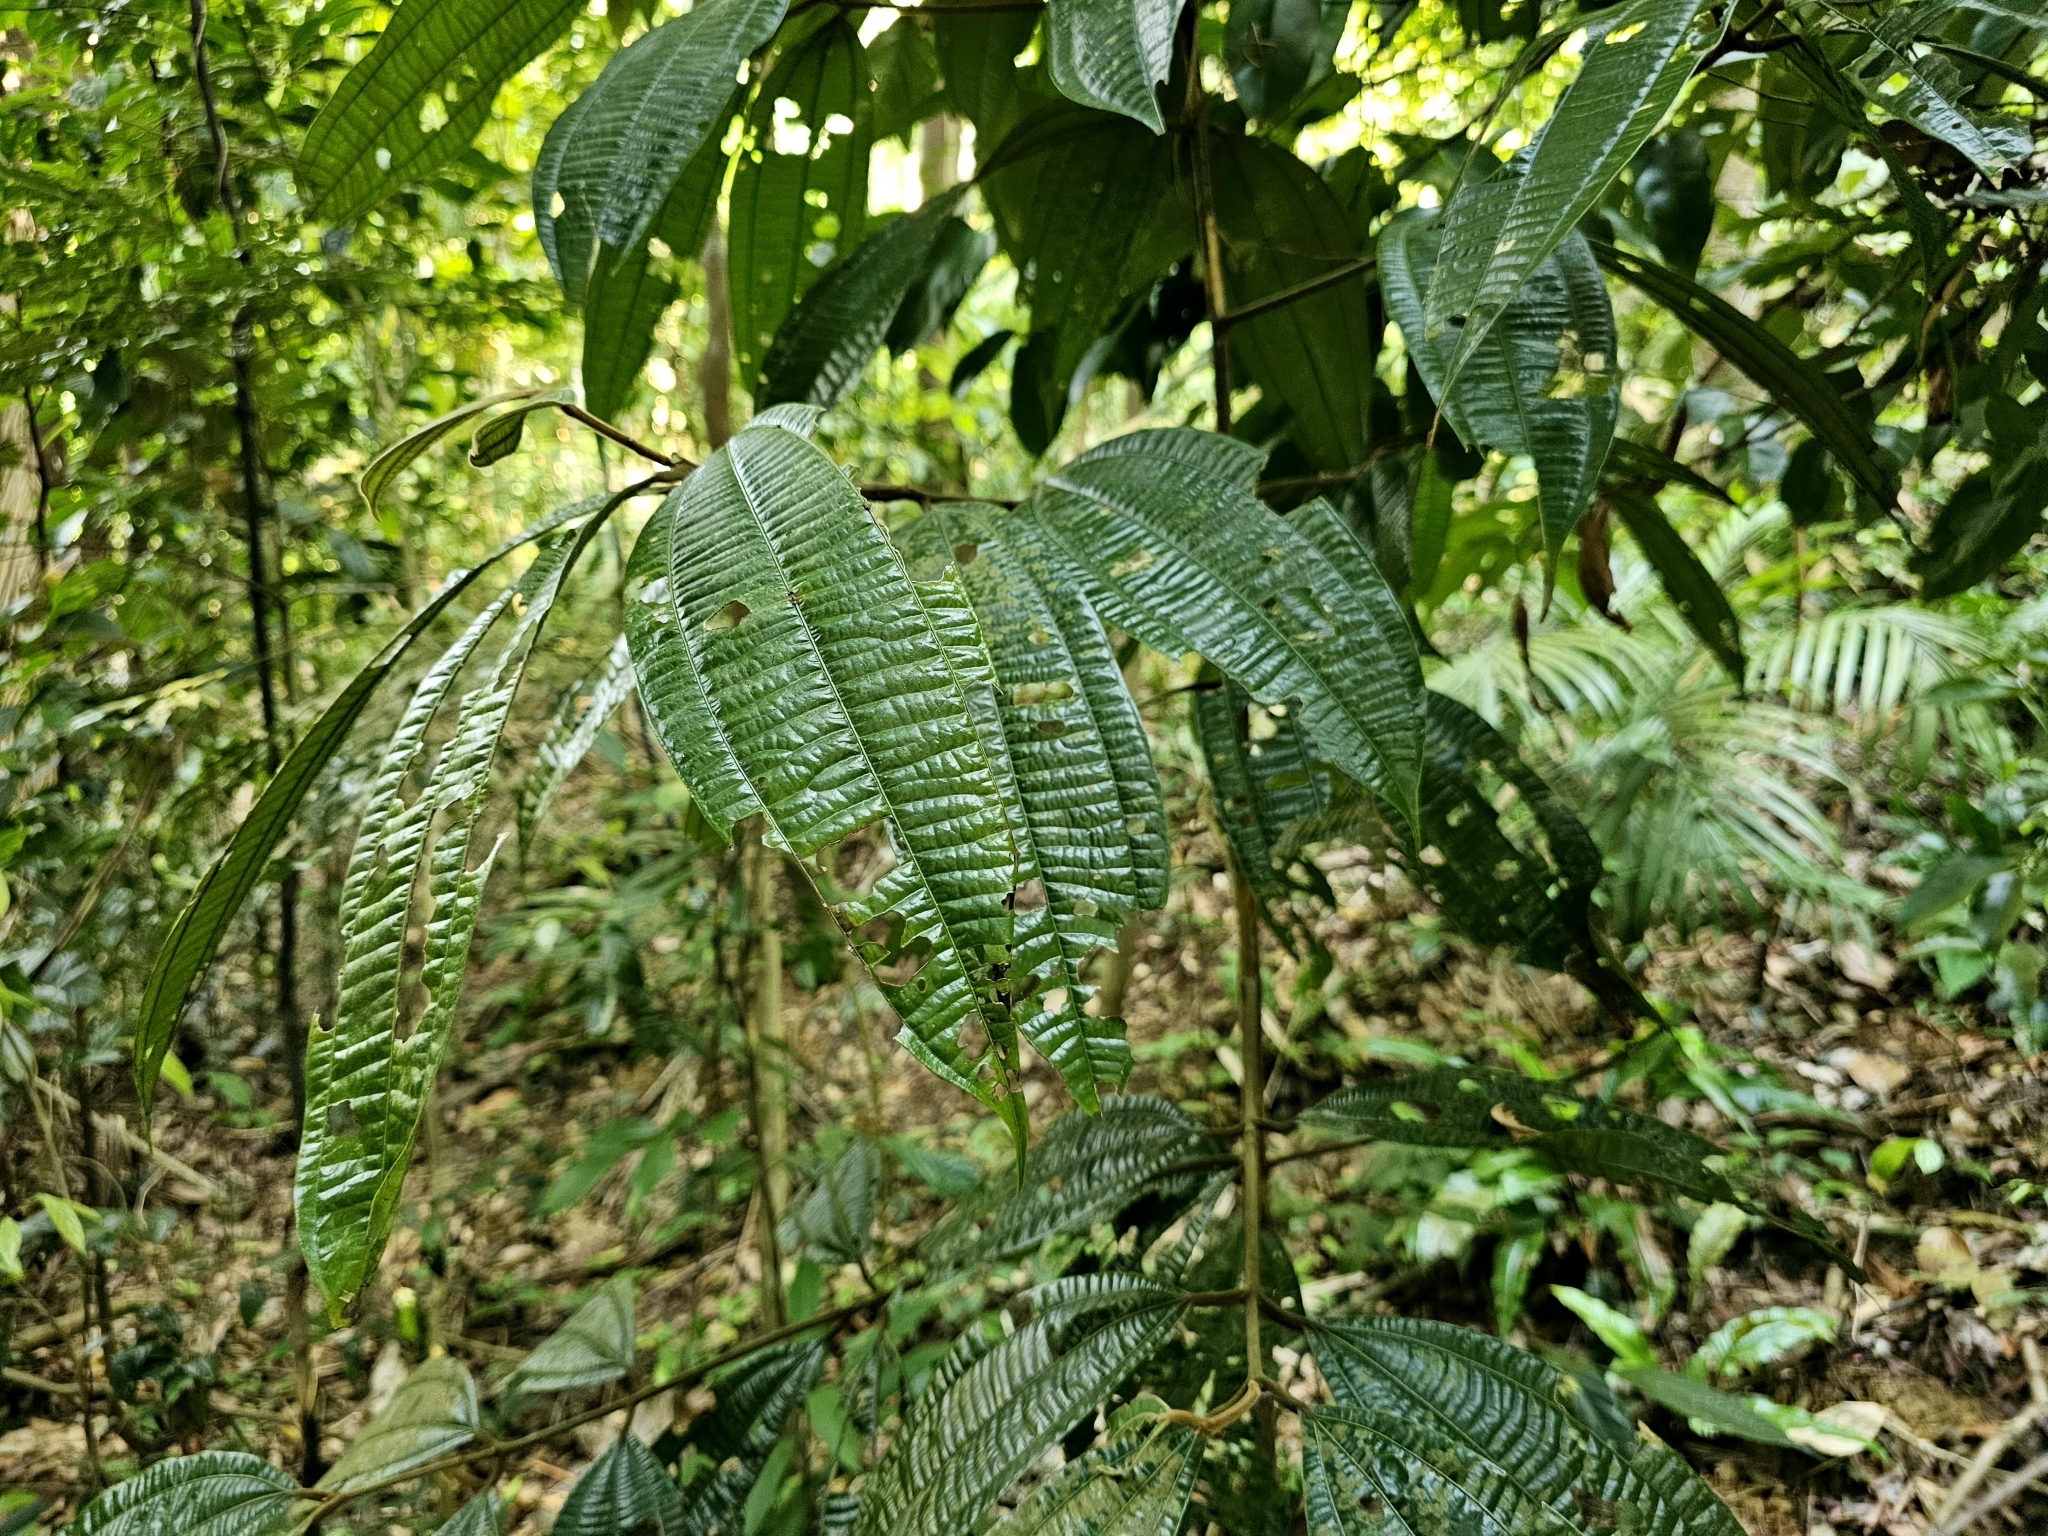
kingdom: Plantae
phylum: Tracheophyta
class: Magnoliopsida
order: Laurales
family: Lauraceae
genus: Cinnamomum
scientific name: Cinnamomum javanicum
